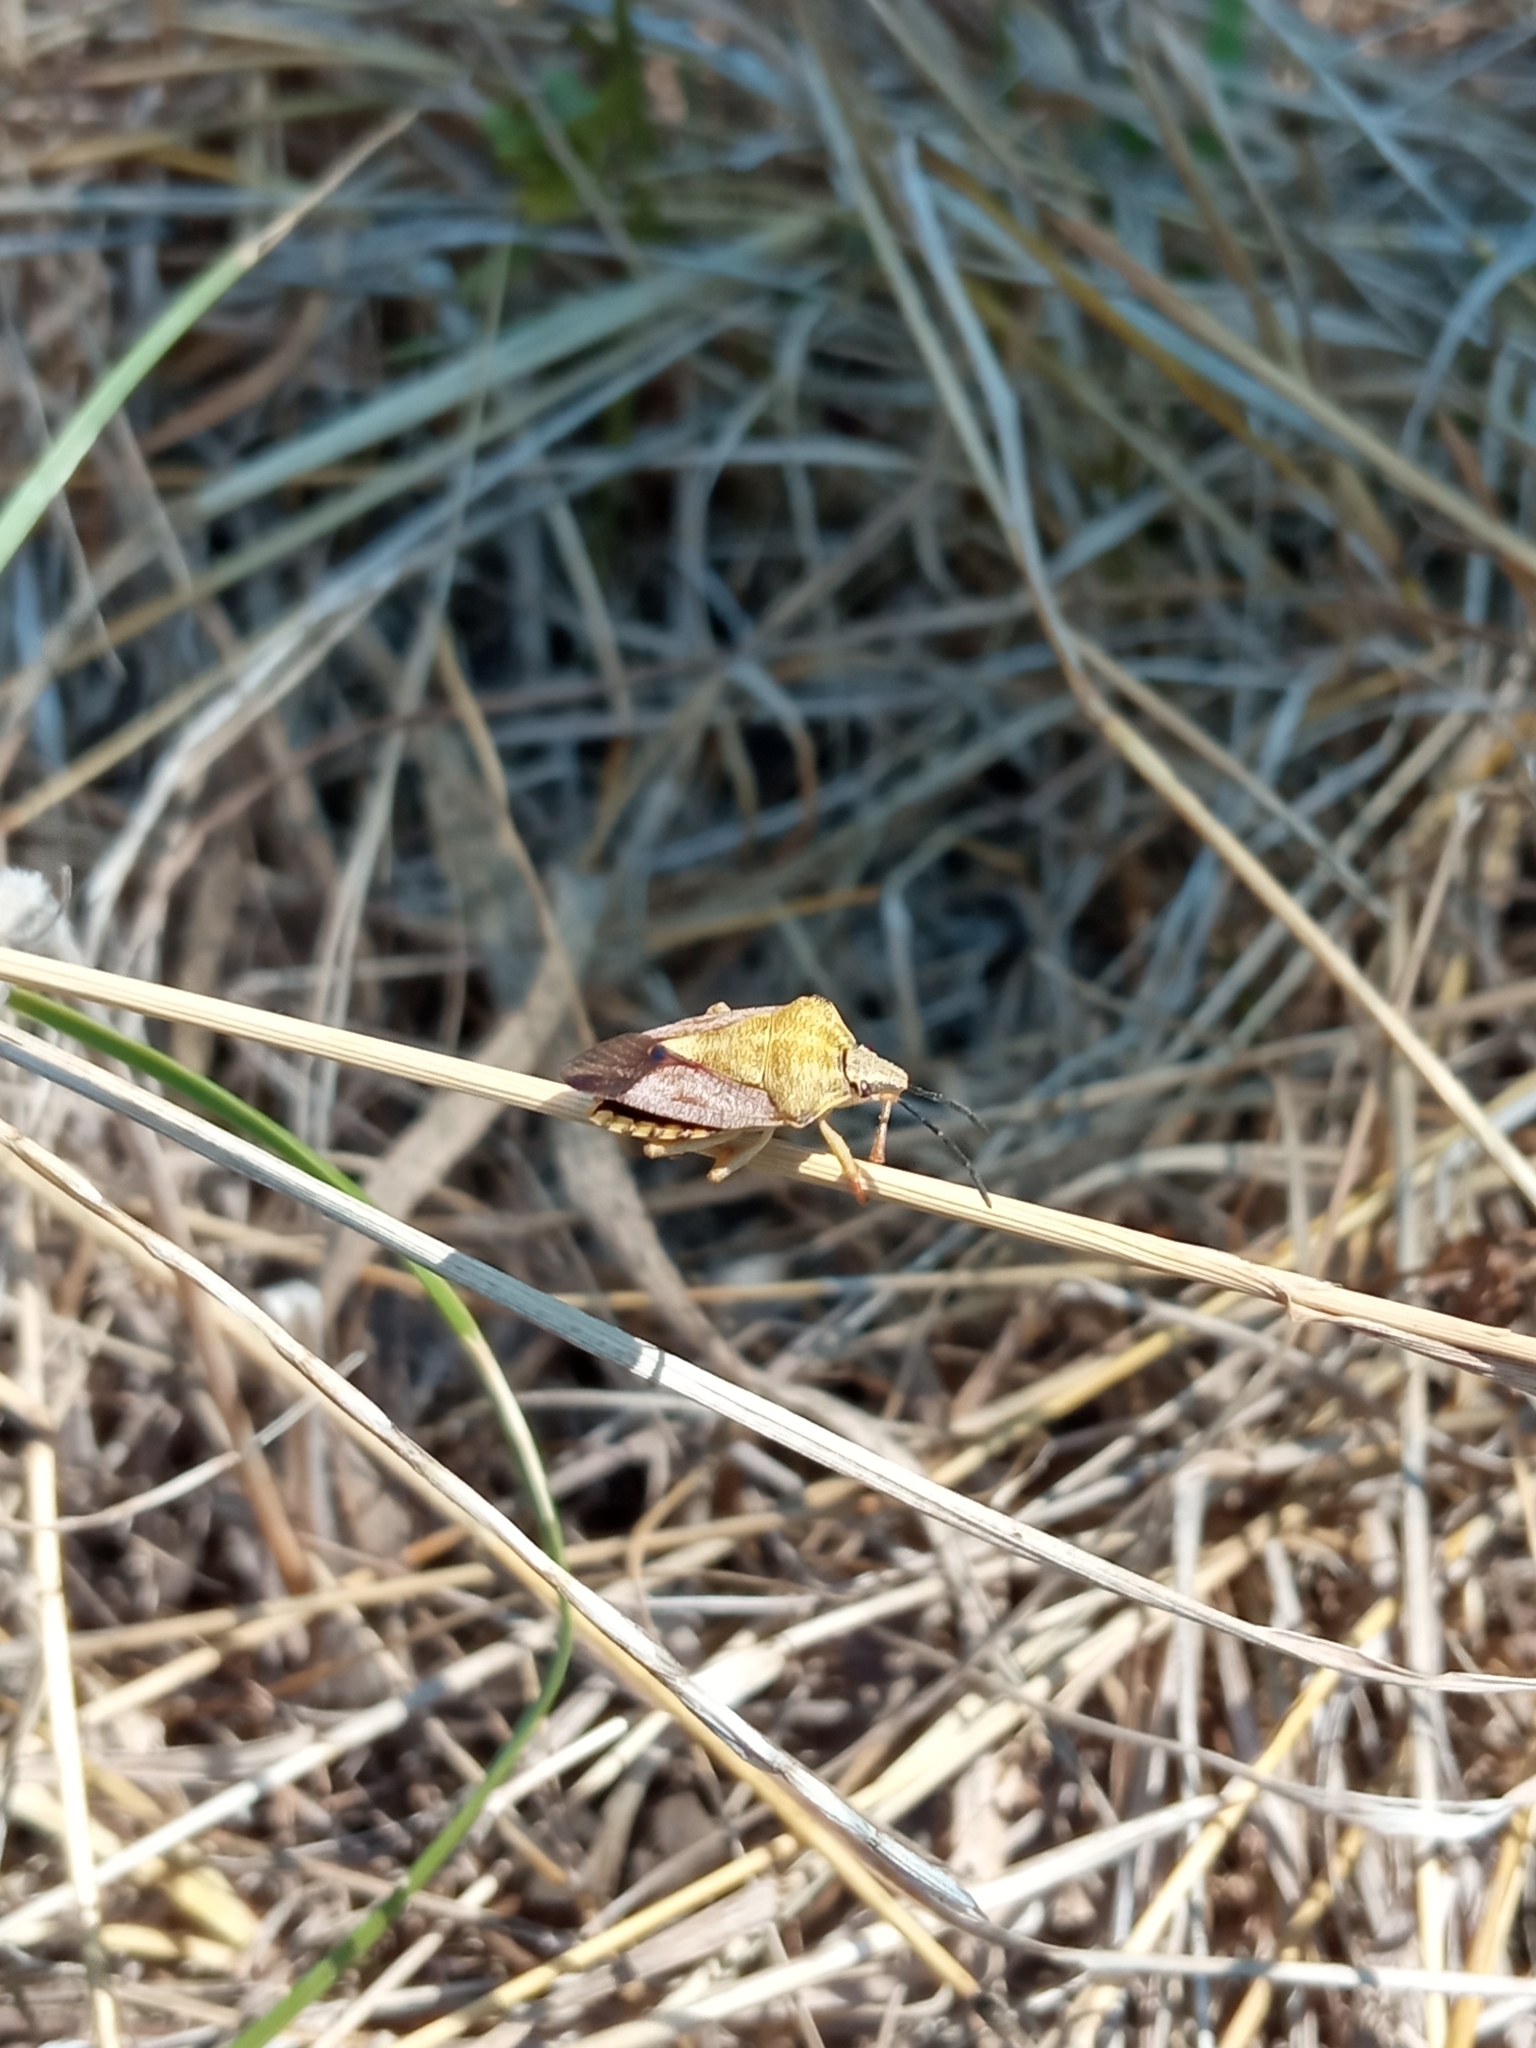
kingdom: Animalia
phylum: Arthropoda
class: Insecta
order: Hemiptera
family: Pentatomidae
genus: Carpocoris
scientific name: Carpocoris purpureipennis
